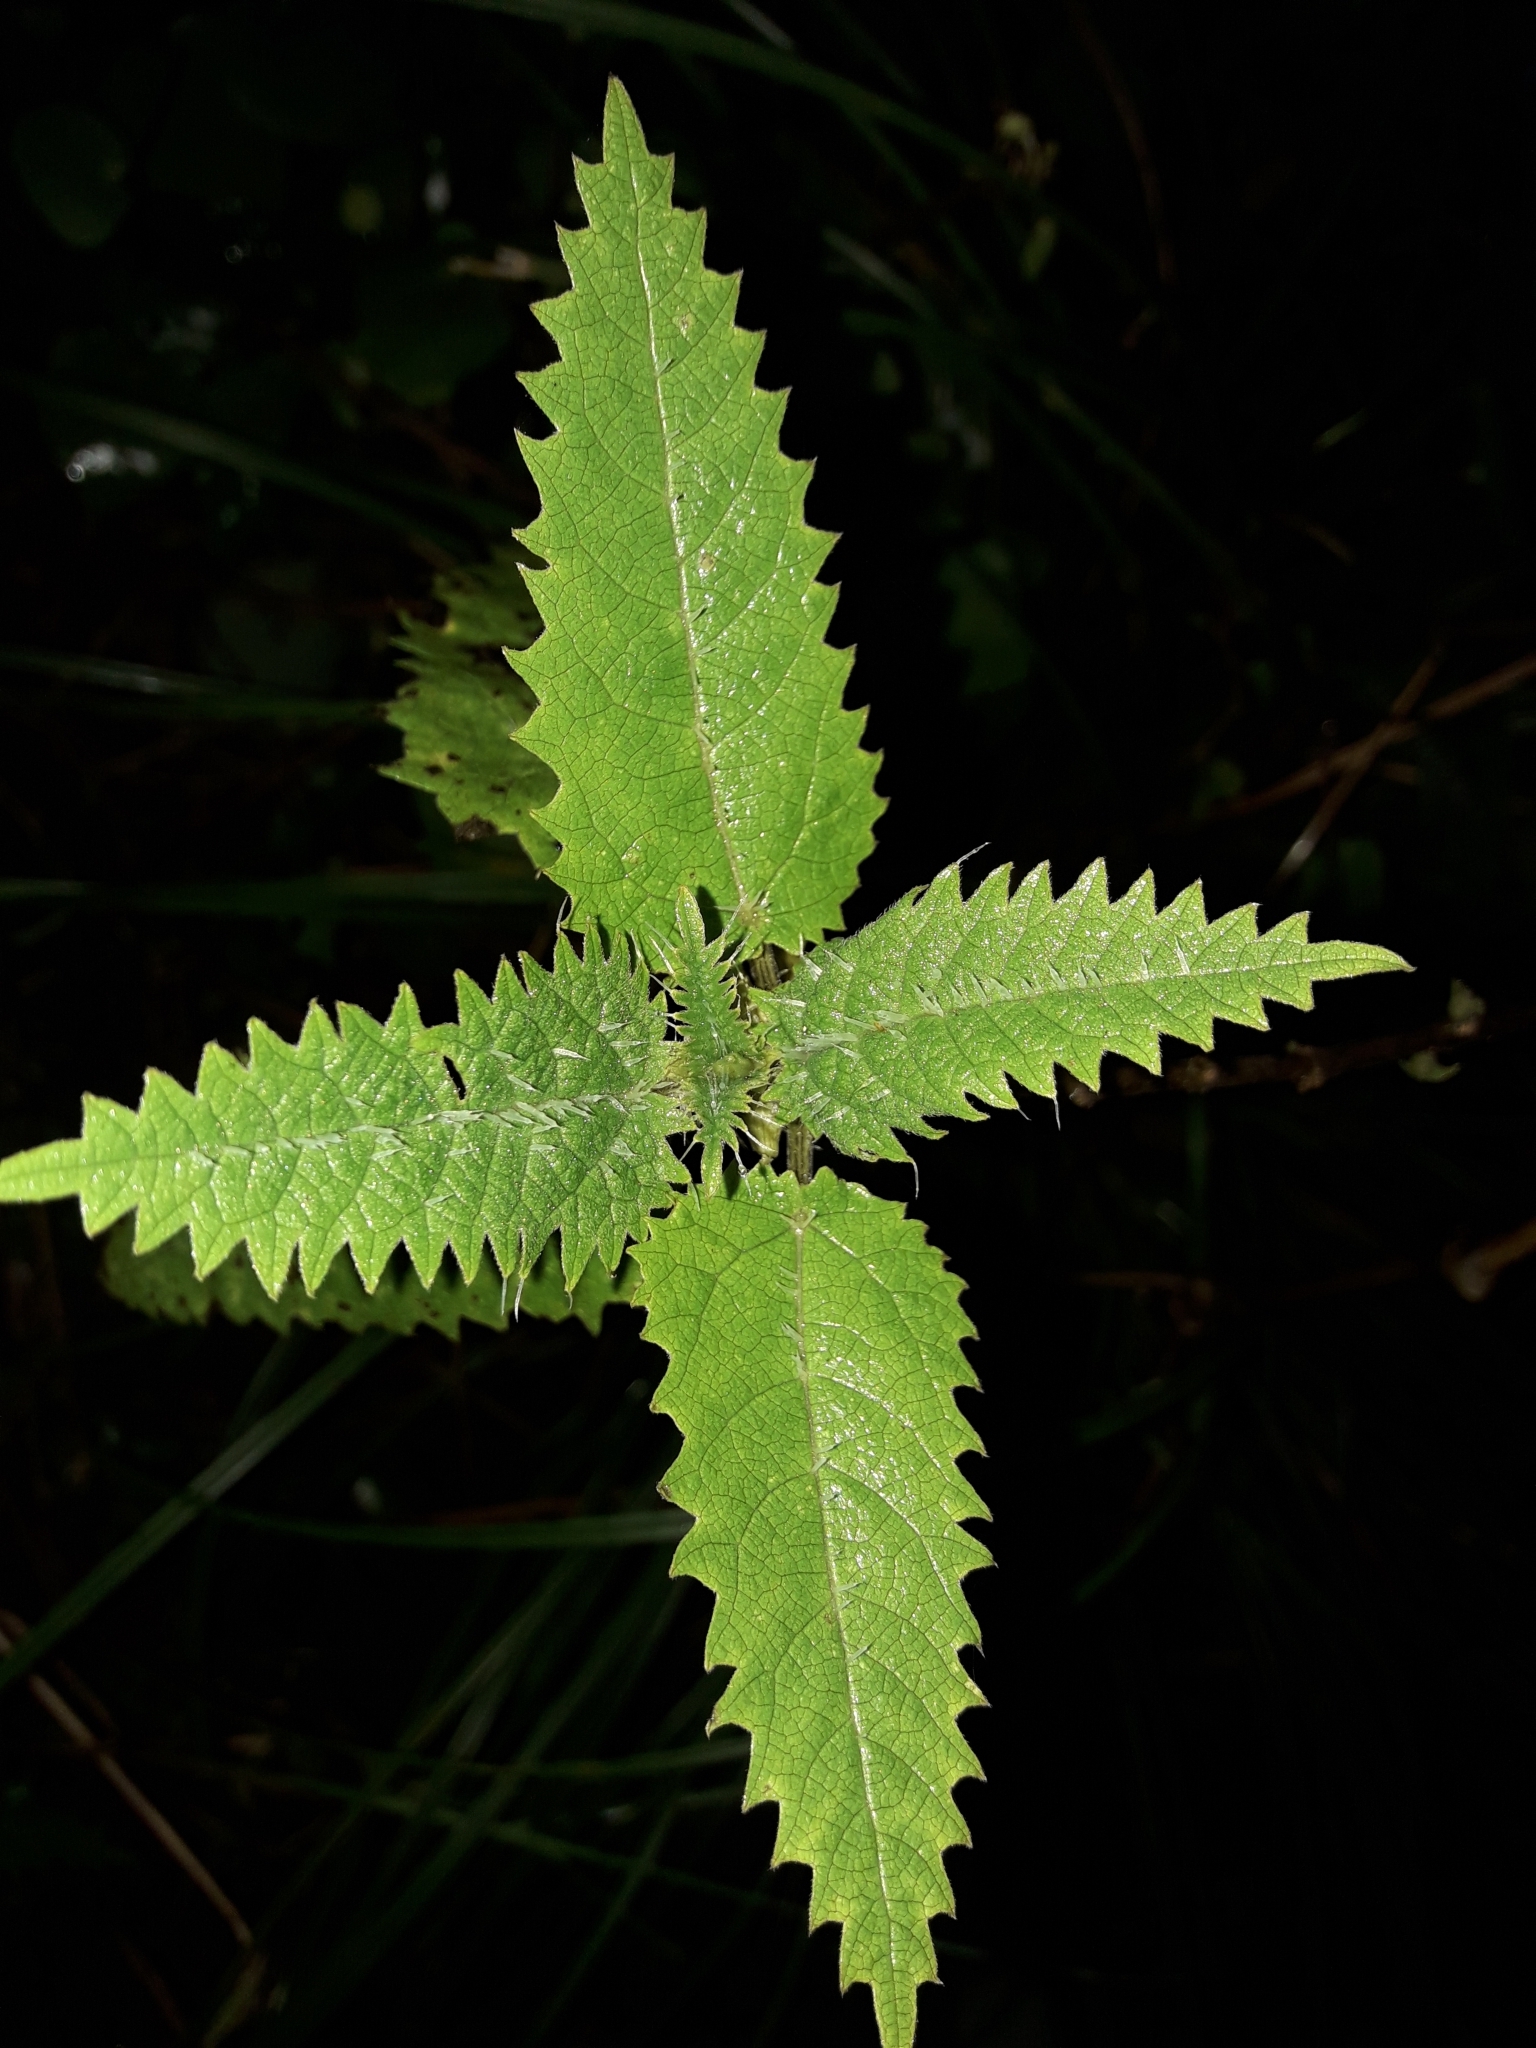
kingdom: Plantae
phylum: Tracheophyta
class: Magnoliopsida
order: Rosales
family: Urticaceae
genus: Urtica
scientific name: Urtica ferox
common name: Tree nettle
